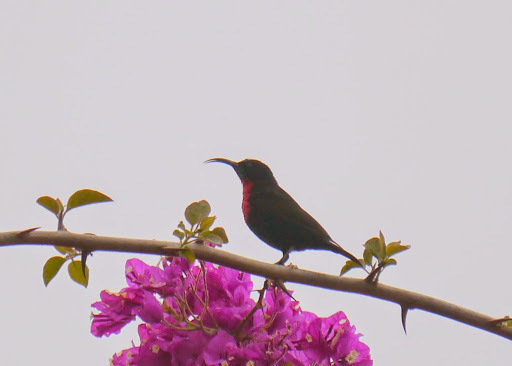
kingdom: Animalia
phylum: Chordata
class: Aves
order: Passeriformes
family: Nectariniidae
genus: Chalcomitra
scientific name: Chalcomitra senegalensis
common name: Scarlet-chested sunbird
